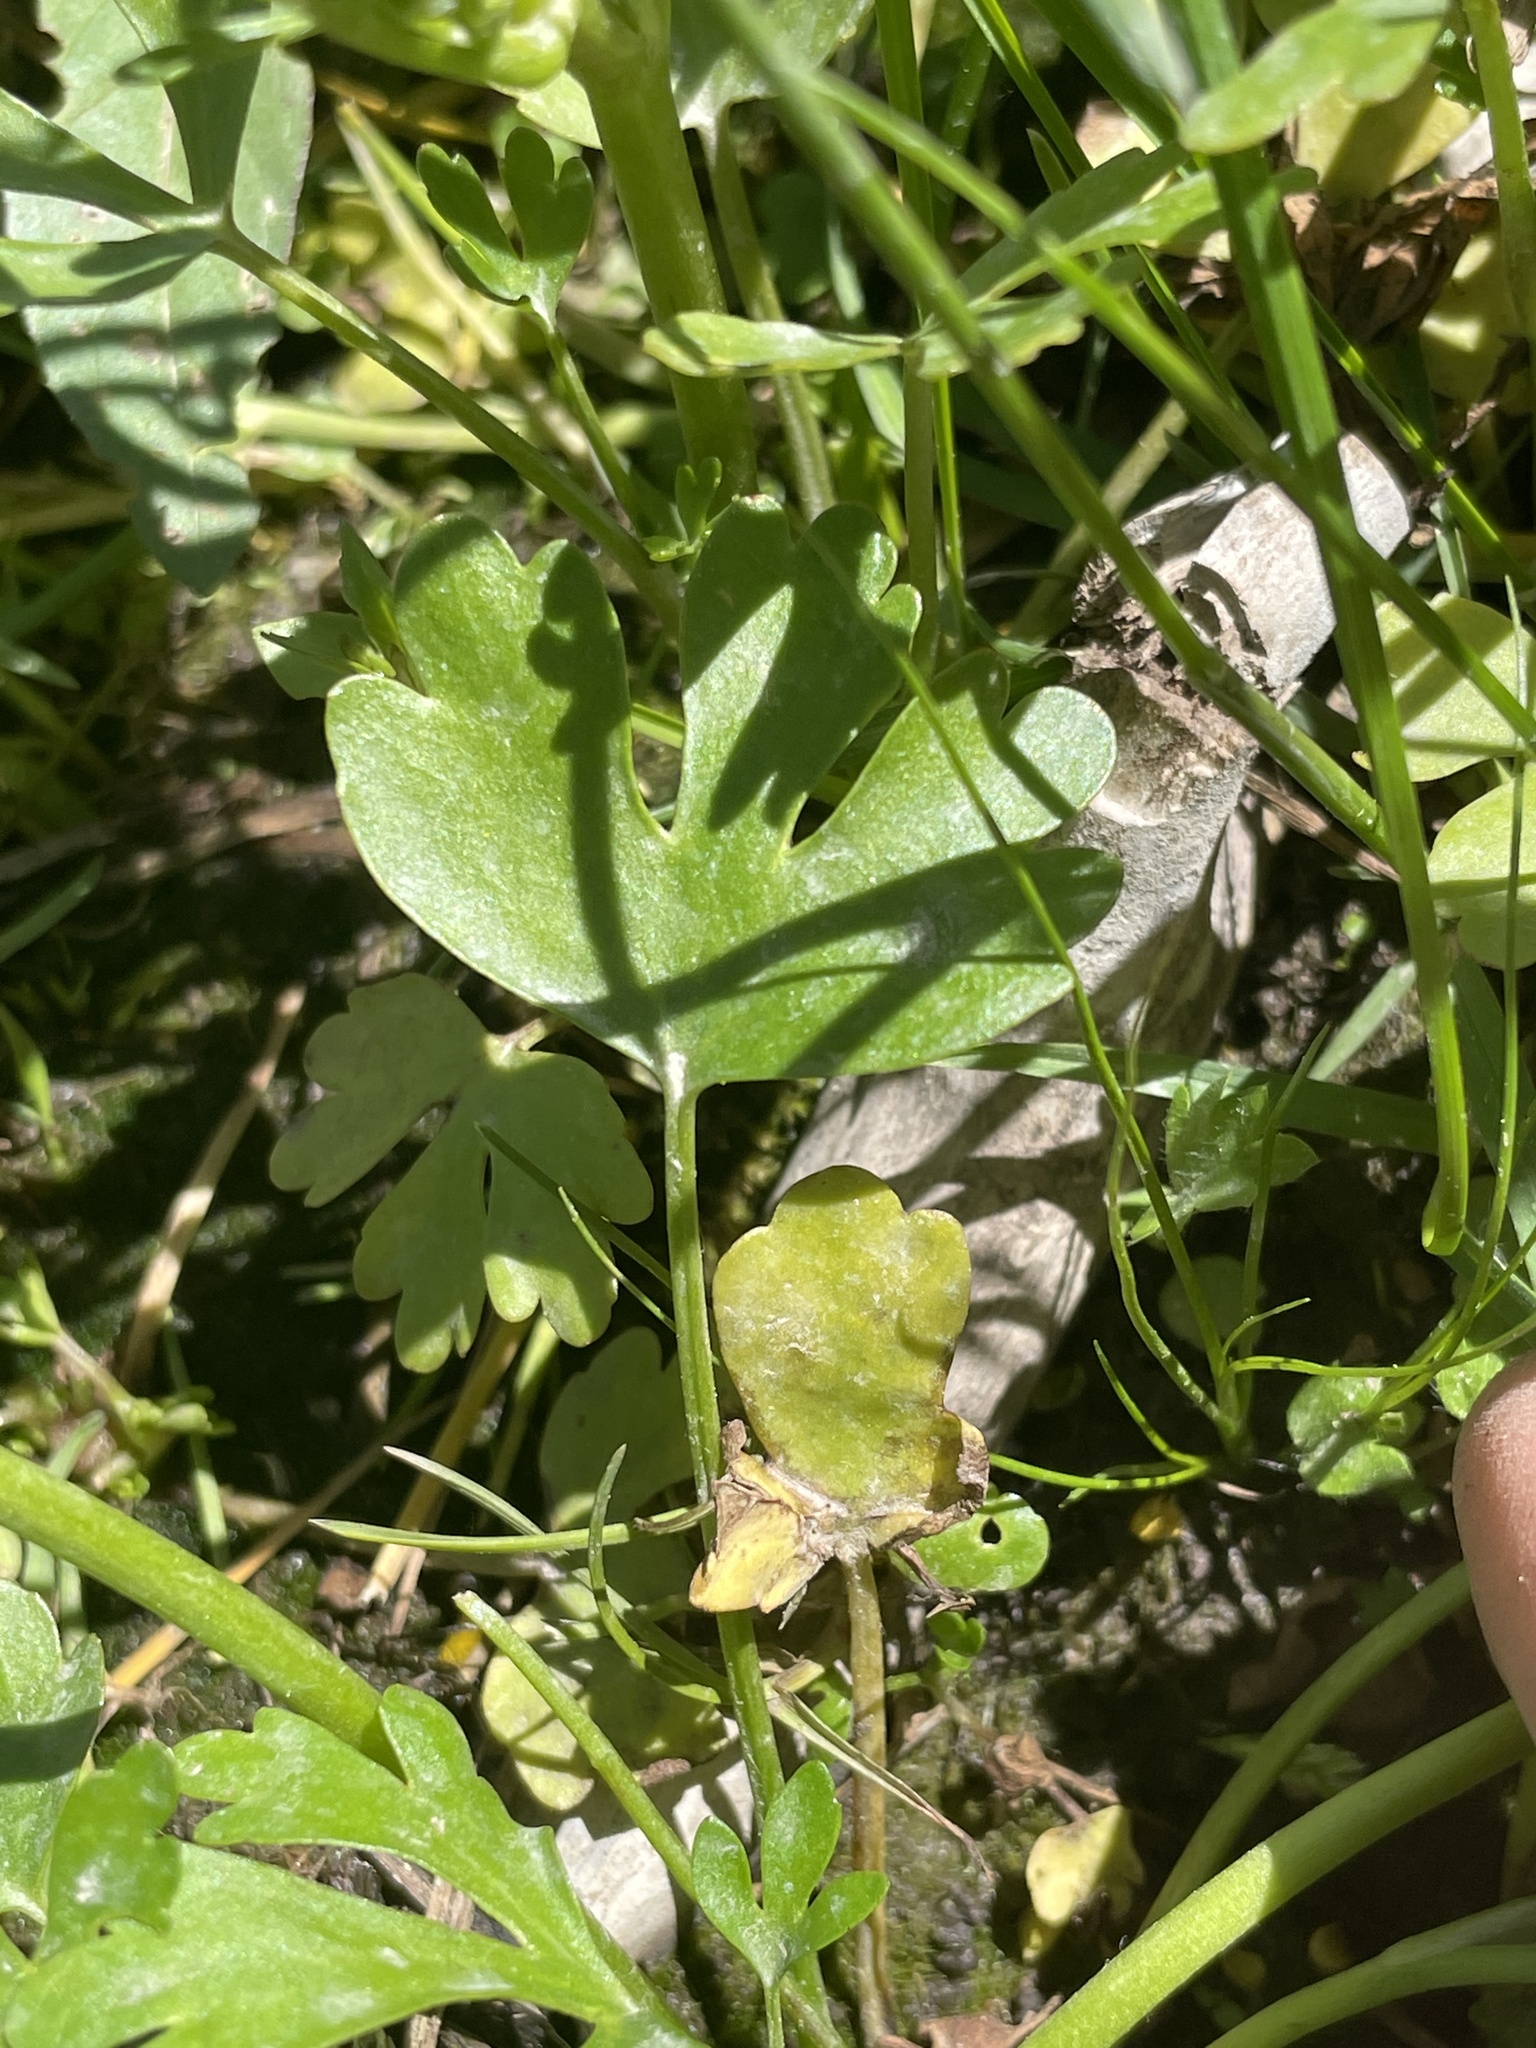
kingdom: Plantae
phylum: Tracheophyta
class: Magnoliopsida
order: Ranunculales
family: Ranunculaceae
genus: Ranunculus
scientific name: Ranunculus sceleratus
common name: Celery-leaved buttercup
